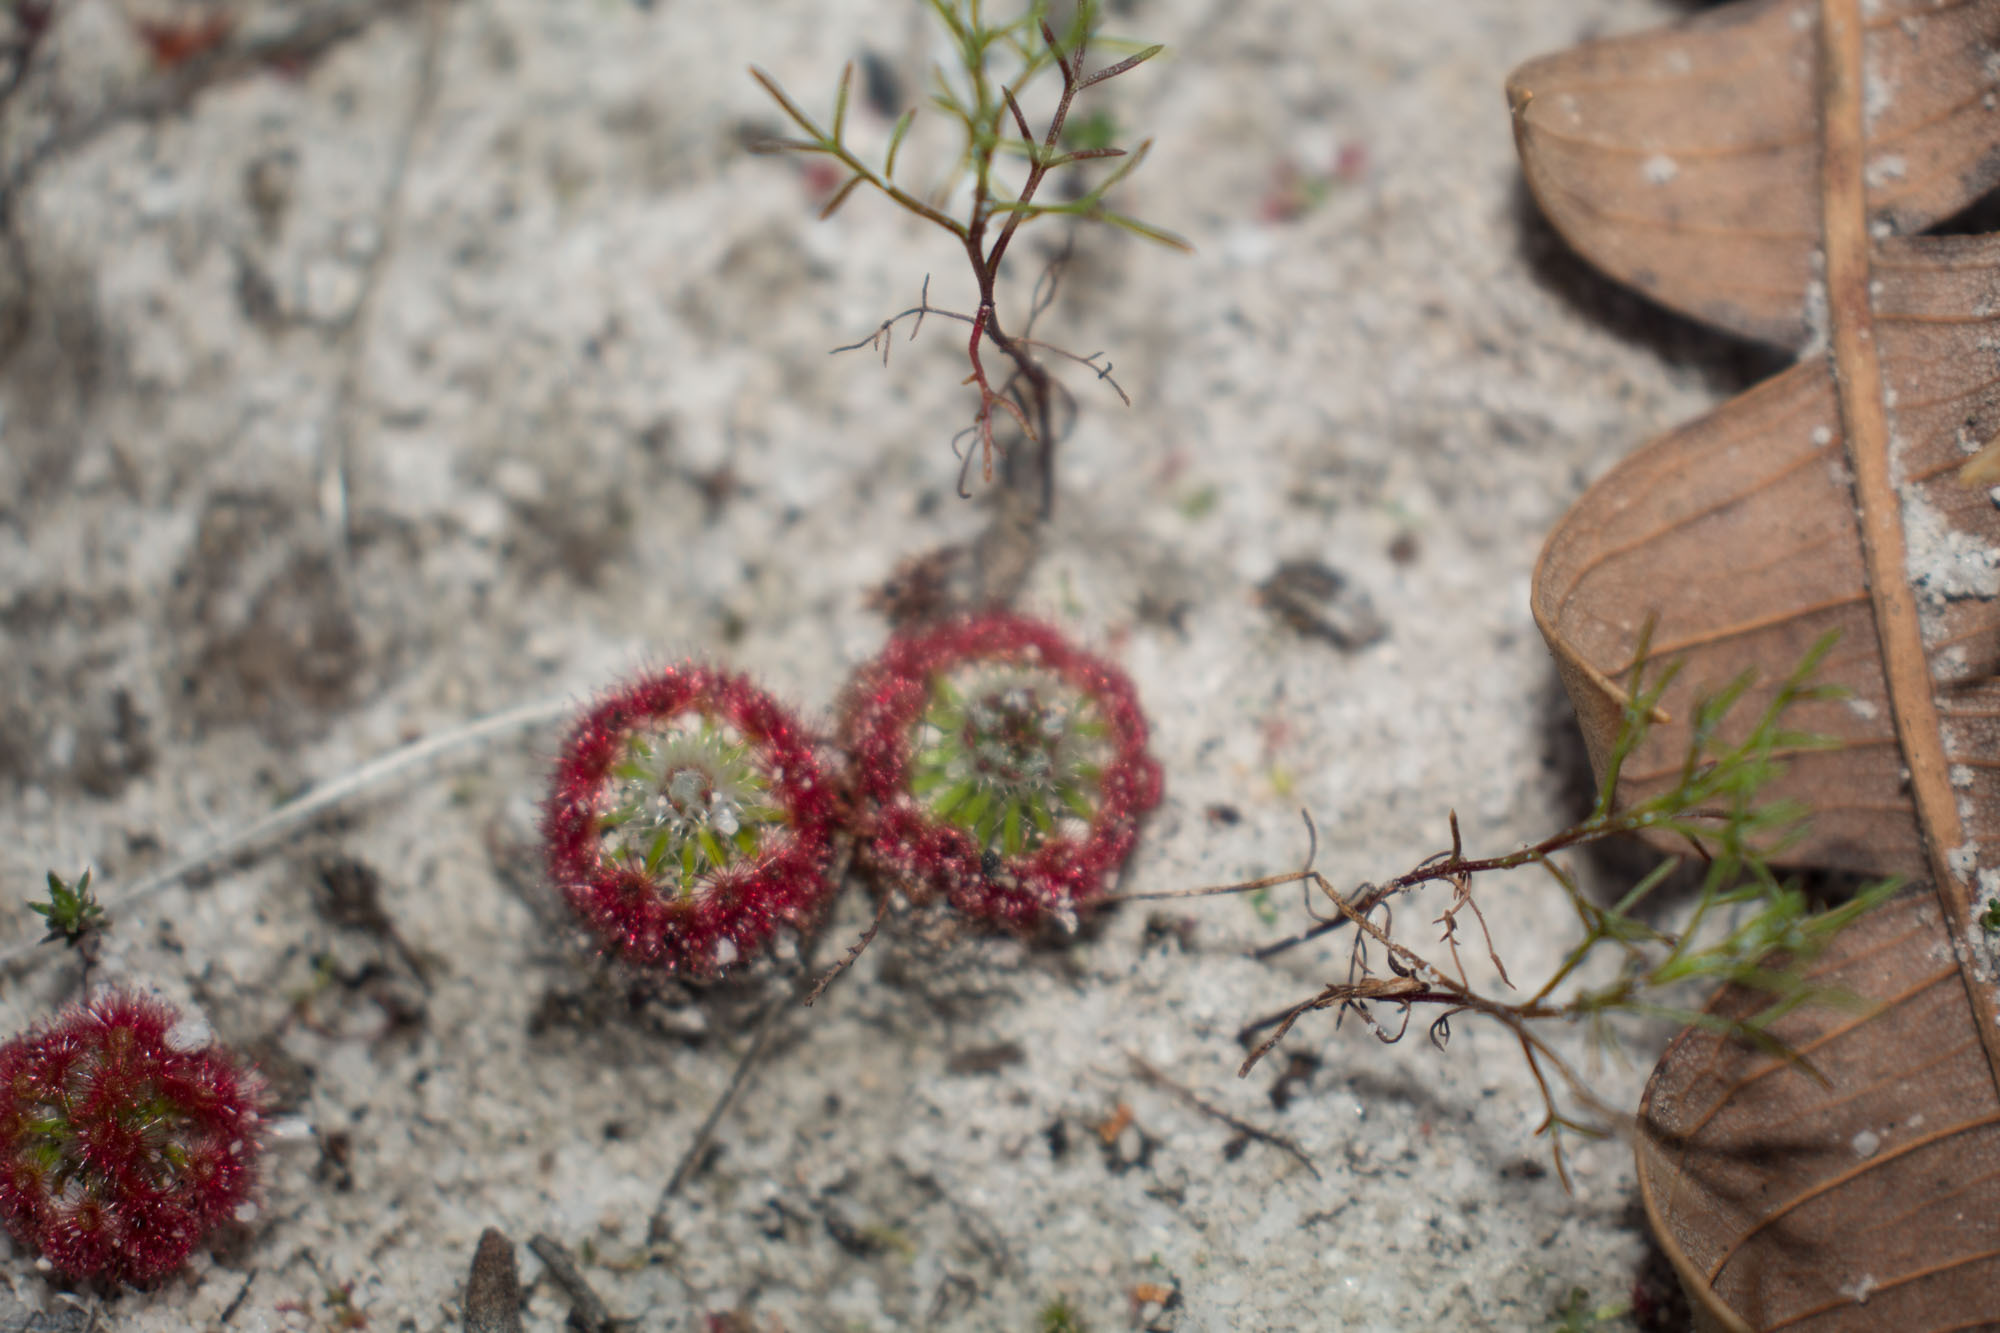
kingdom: Plantae
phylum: Tracheophyta
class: Magnoliopsida
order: Caryophyllales
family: Droseraceae
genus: Drosera
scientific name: Drosera paleacea
